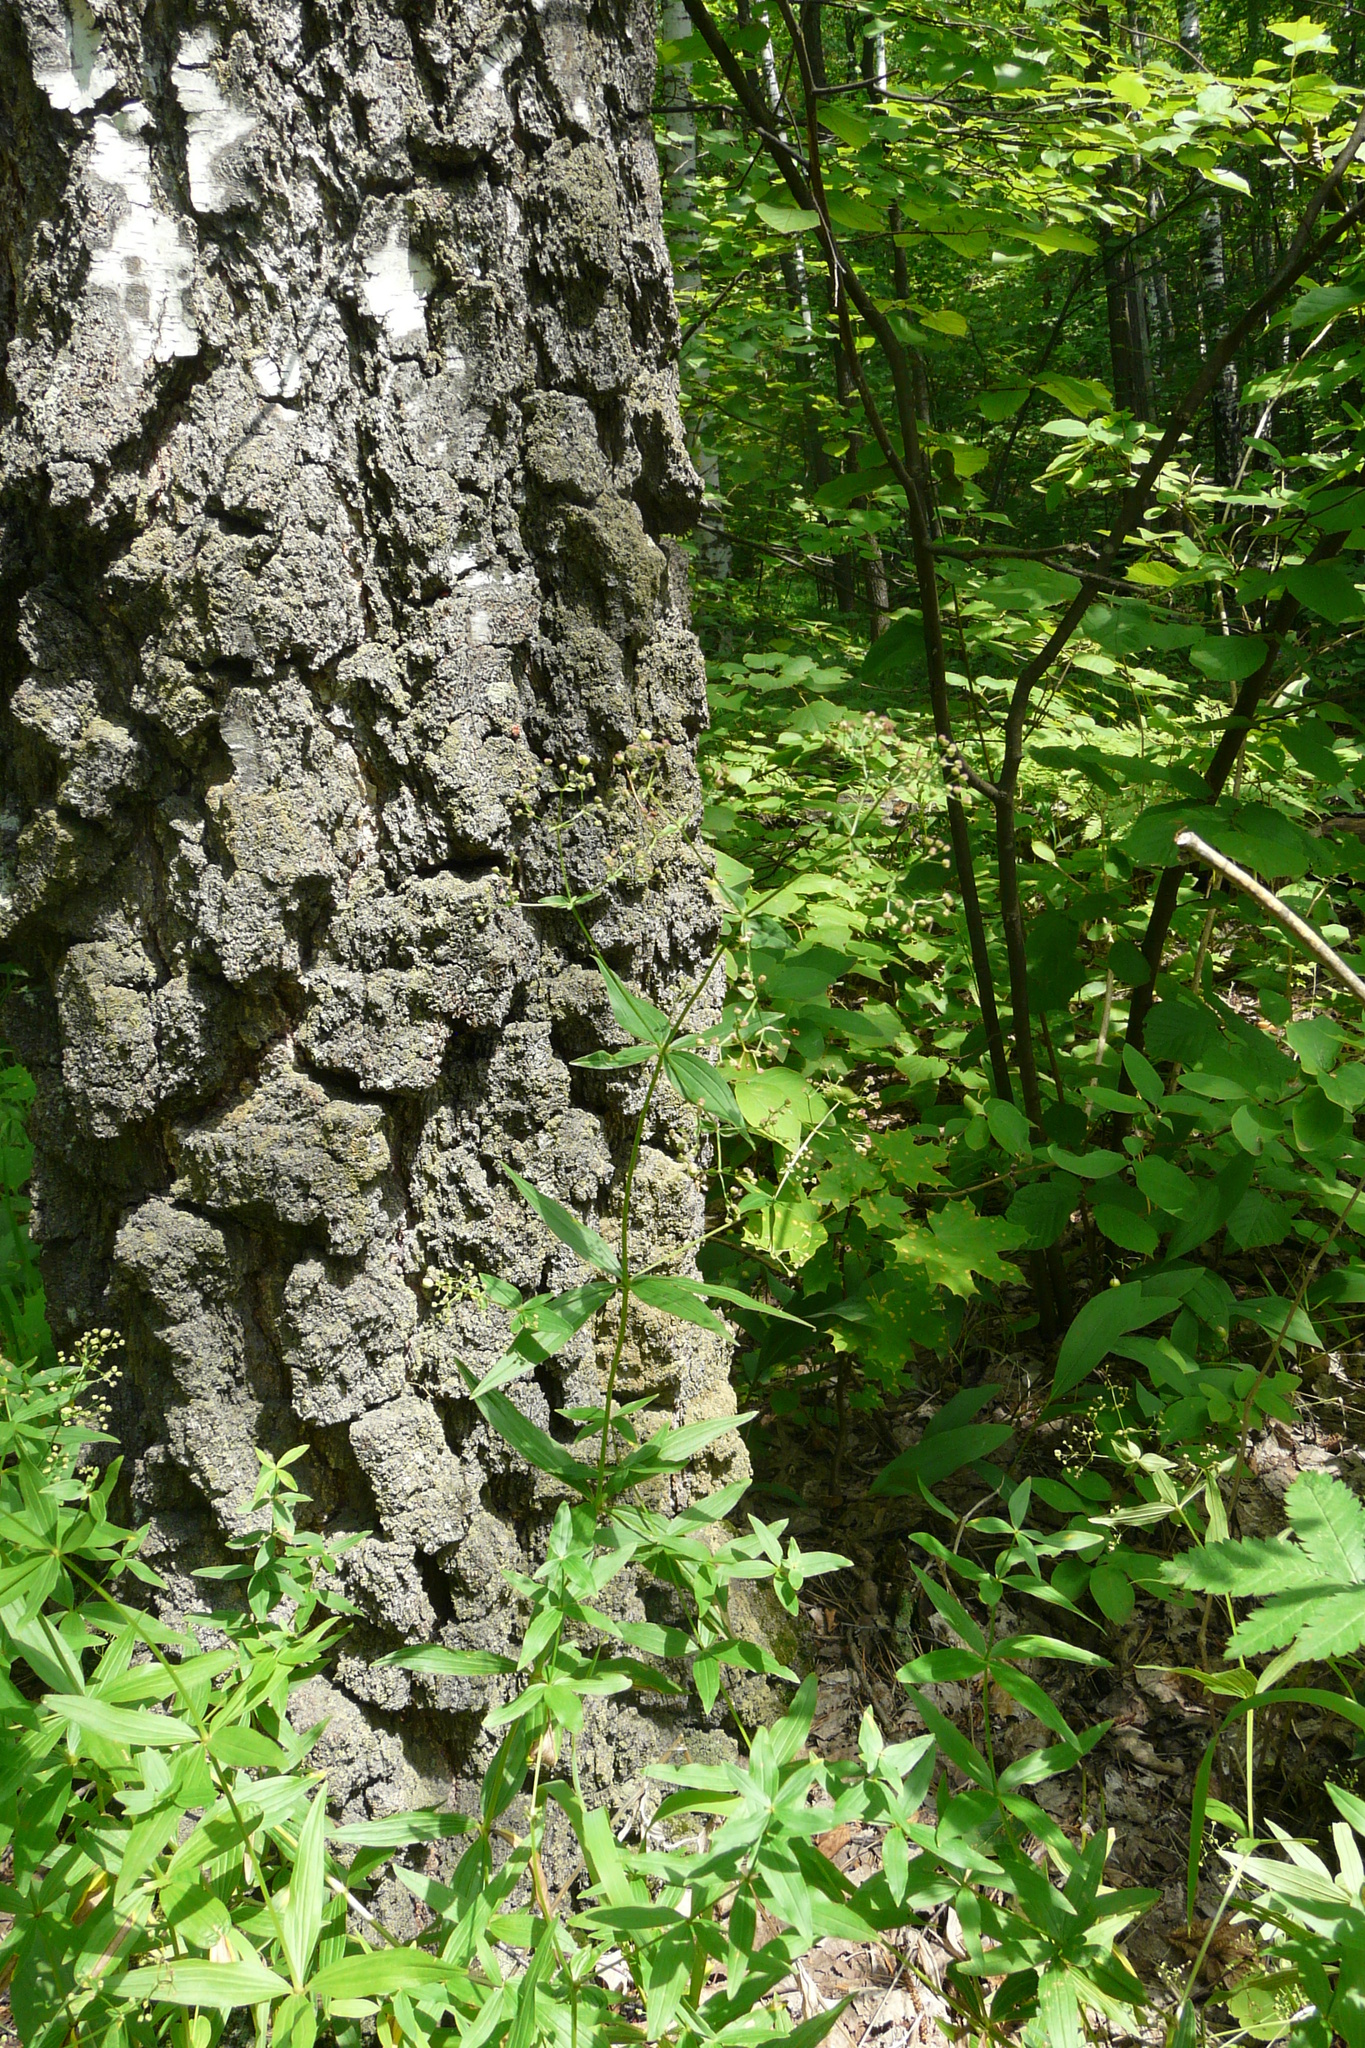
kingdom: Plantae
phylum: Tracheophyta
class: Magnoliopsida
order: Gentianales
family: Rubiaceae
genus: Galium
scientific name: Galium boreale
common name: Northern bedstraw
